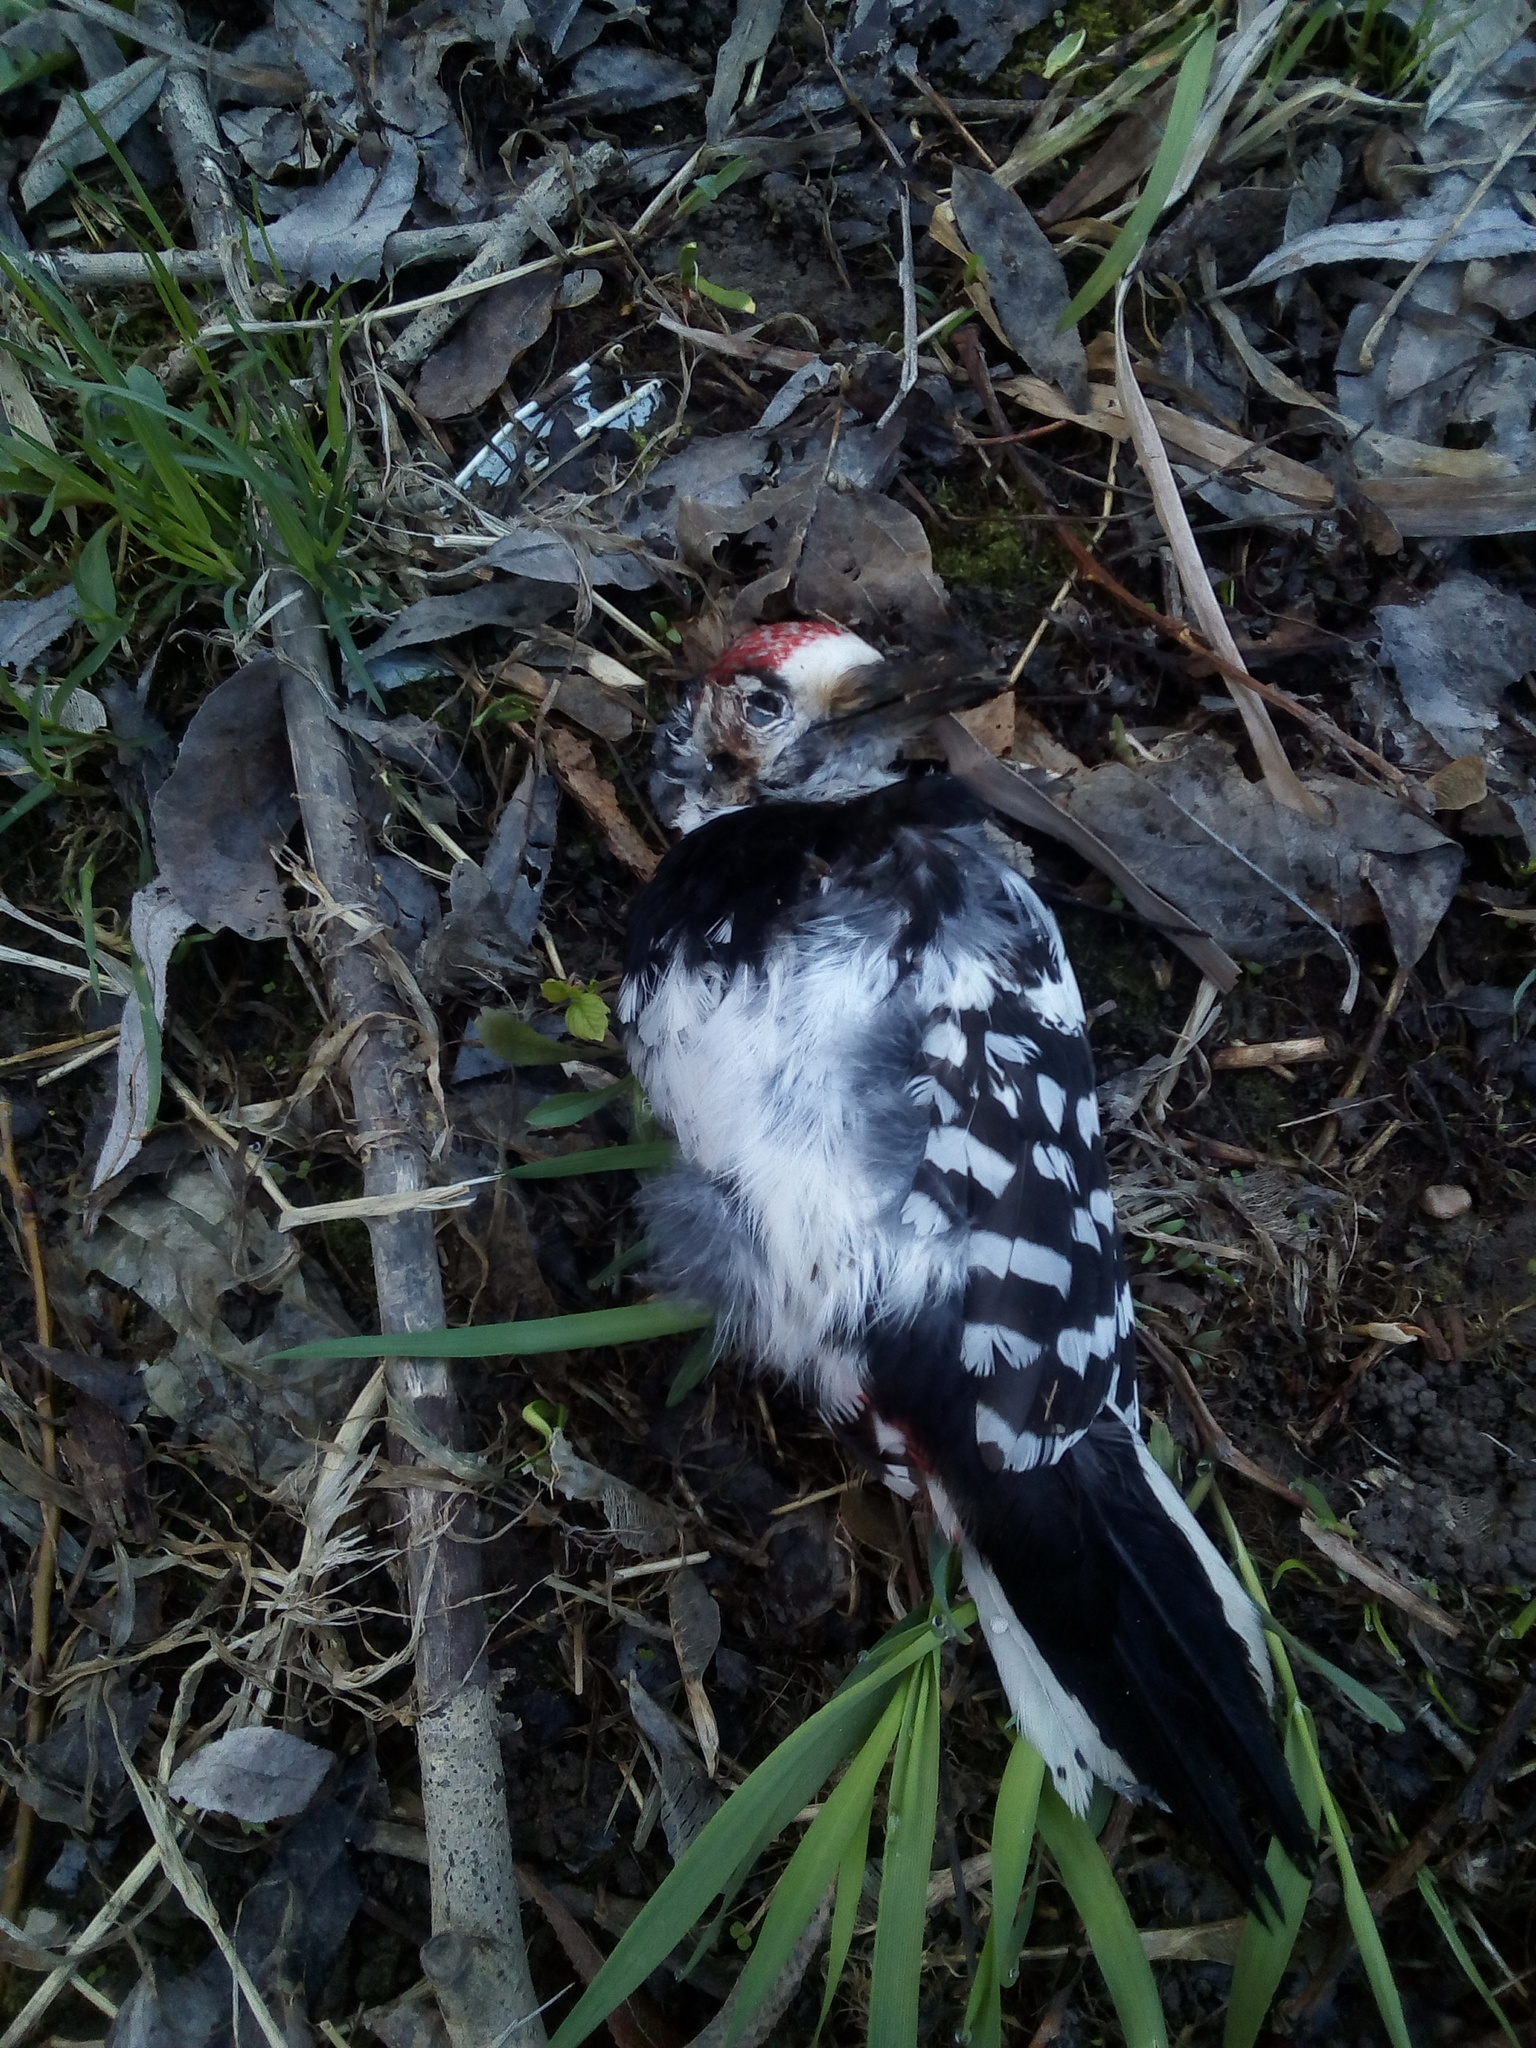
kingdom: Animalia
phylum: Chordata
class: Aves
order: Piciformes
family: Picidae
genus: Dendrocopos
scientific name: Dendrocopos leucotos
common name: White-backed woodpecker
